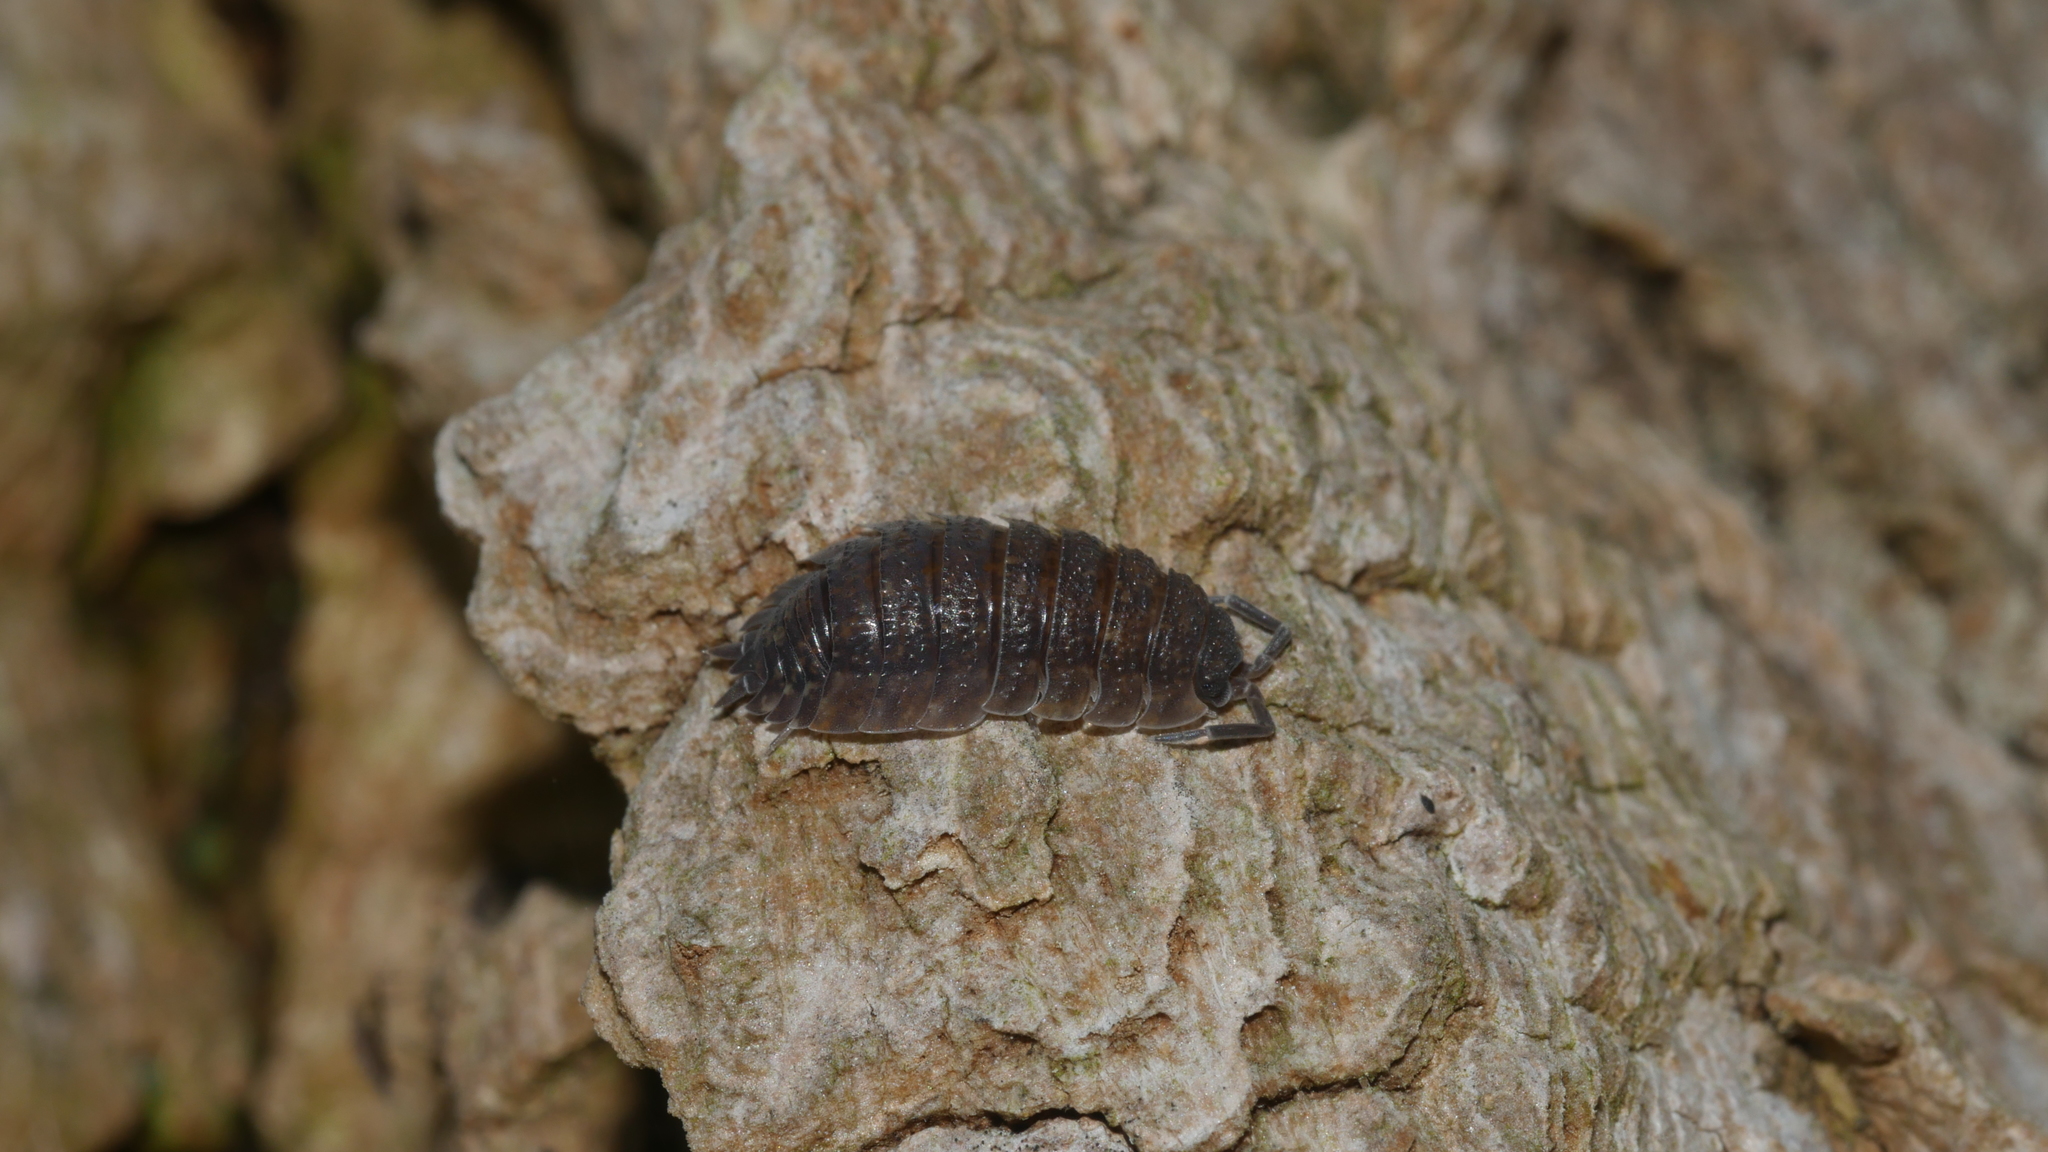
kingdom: Animalia
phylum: Arthropoda
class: Malacostraca
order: Isopoda
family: Porcellionidae
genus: Porcellio
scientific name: Porcellio scaber
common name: Common rough woodlouse
